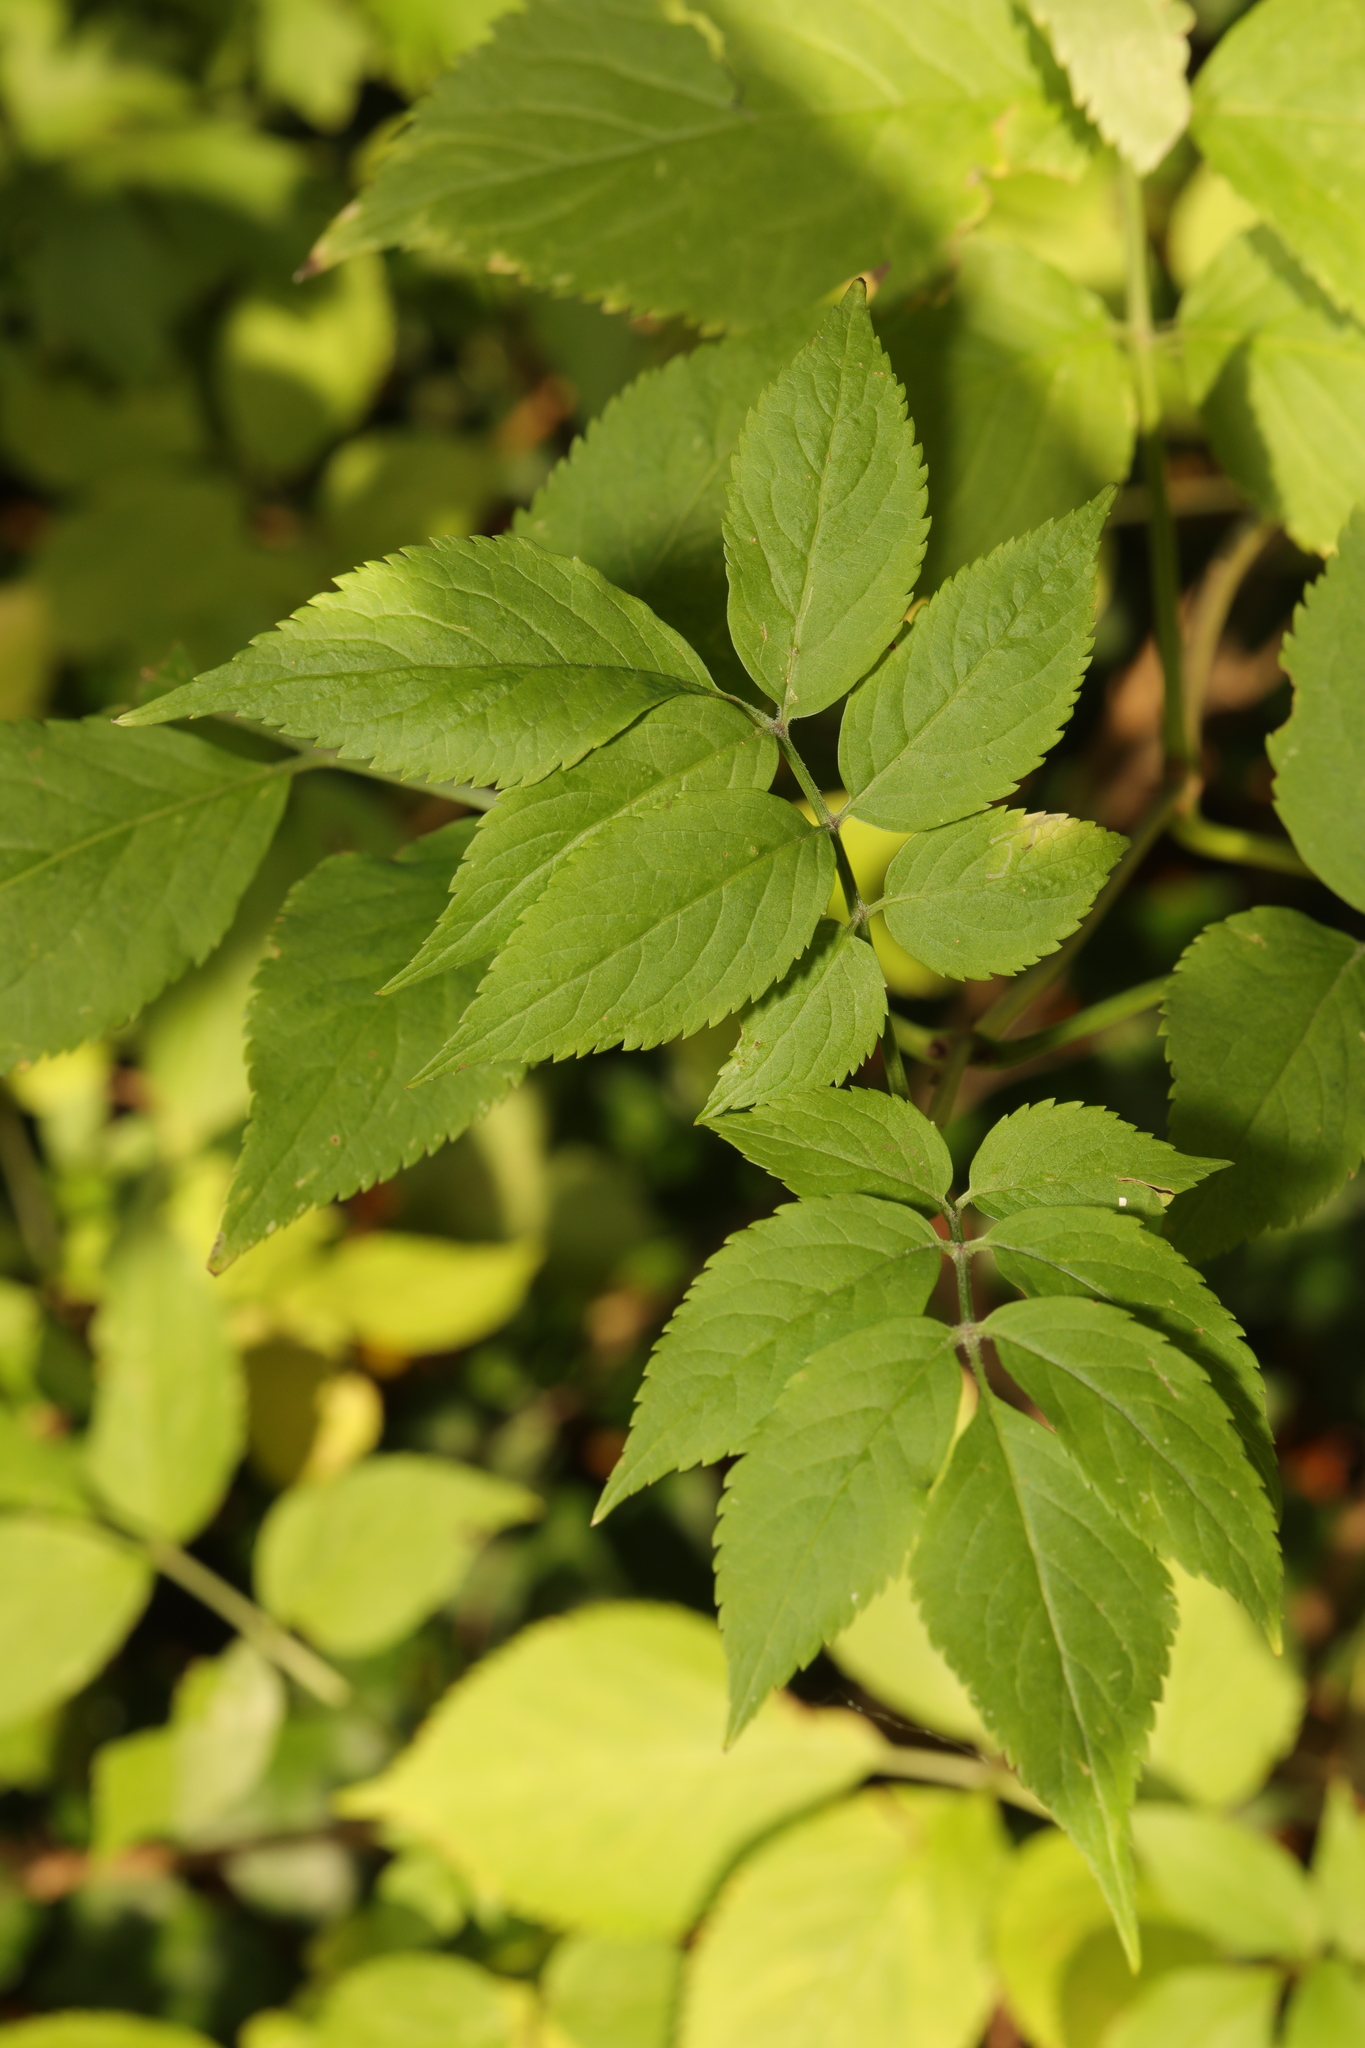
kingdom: Plantae
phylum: Tracheophyta
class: Magnoliopsida
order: Dipsacales
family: Viburnaceae
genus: Sambucus
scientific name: Sambucus nigra
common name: Elder
